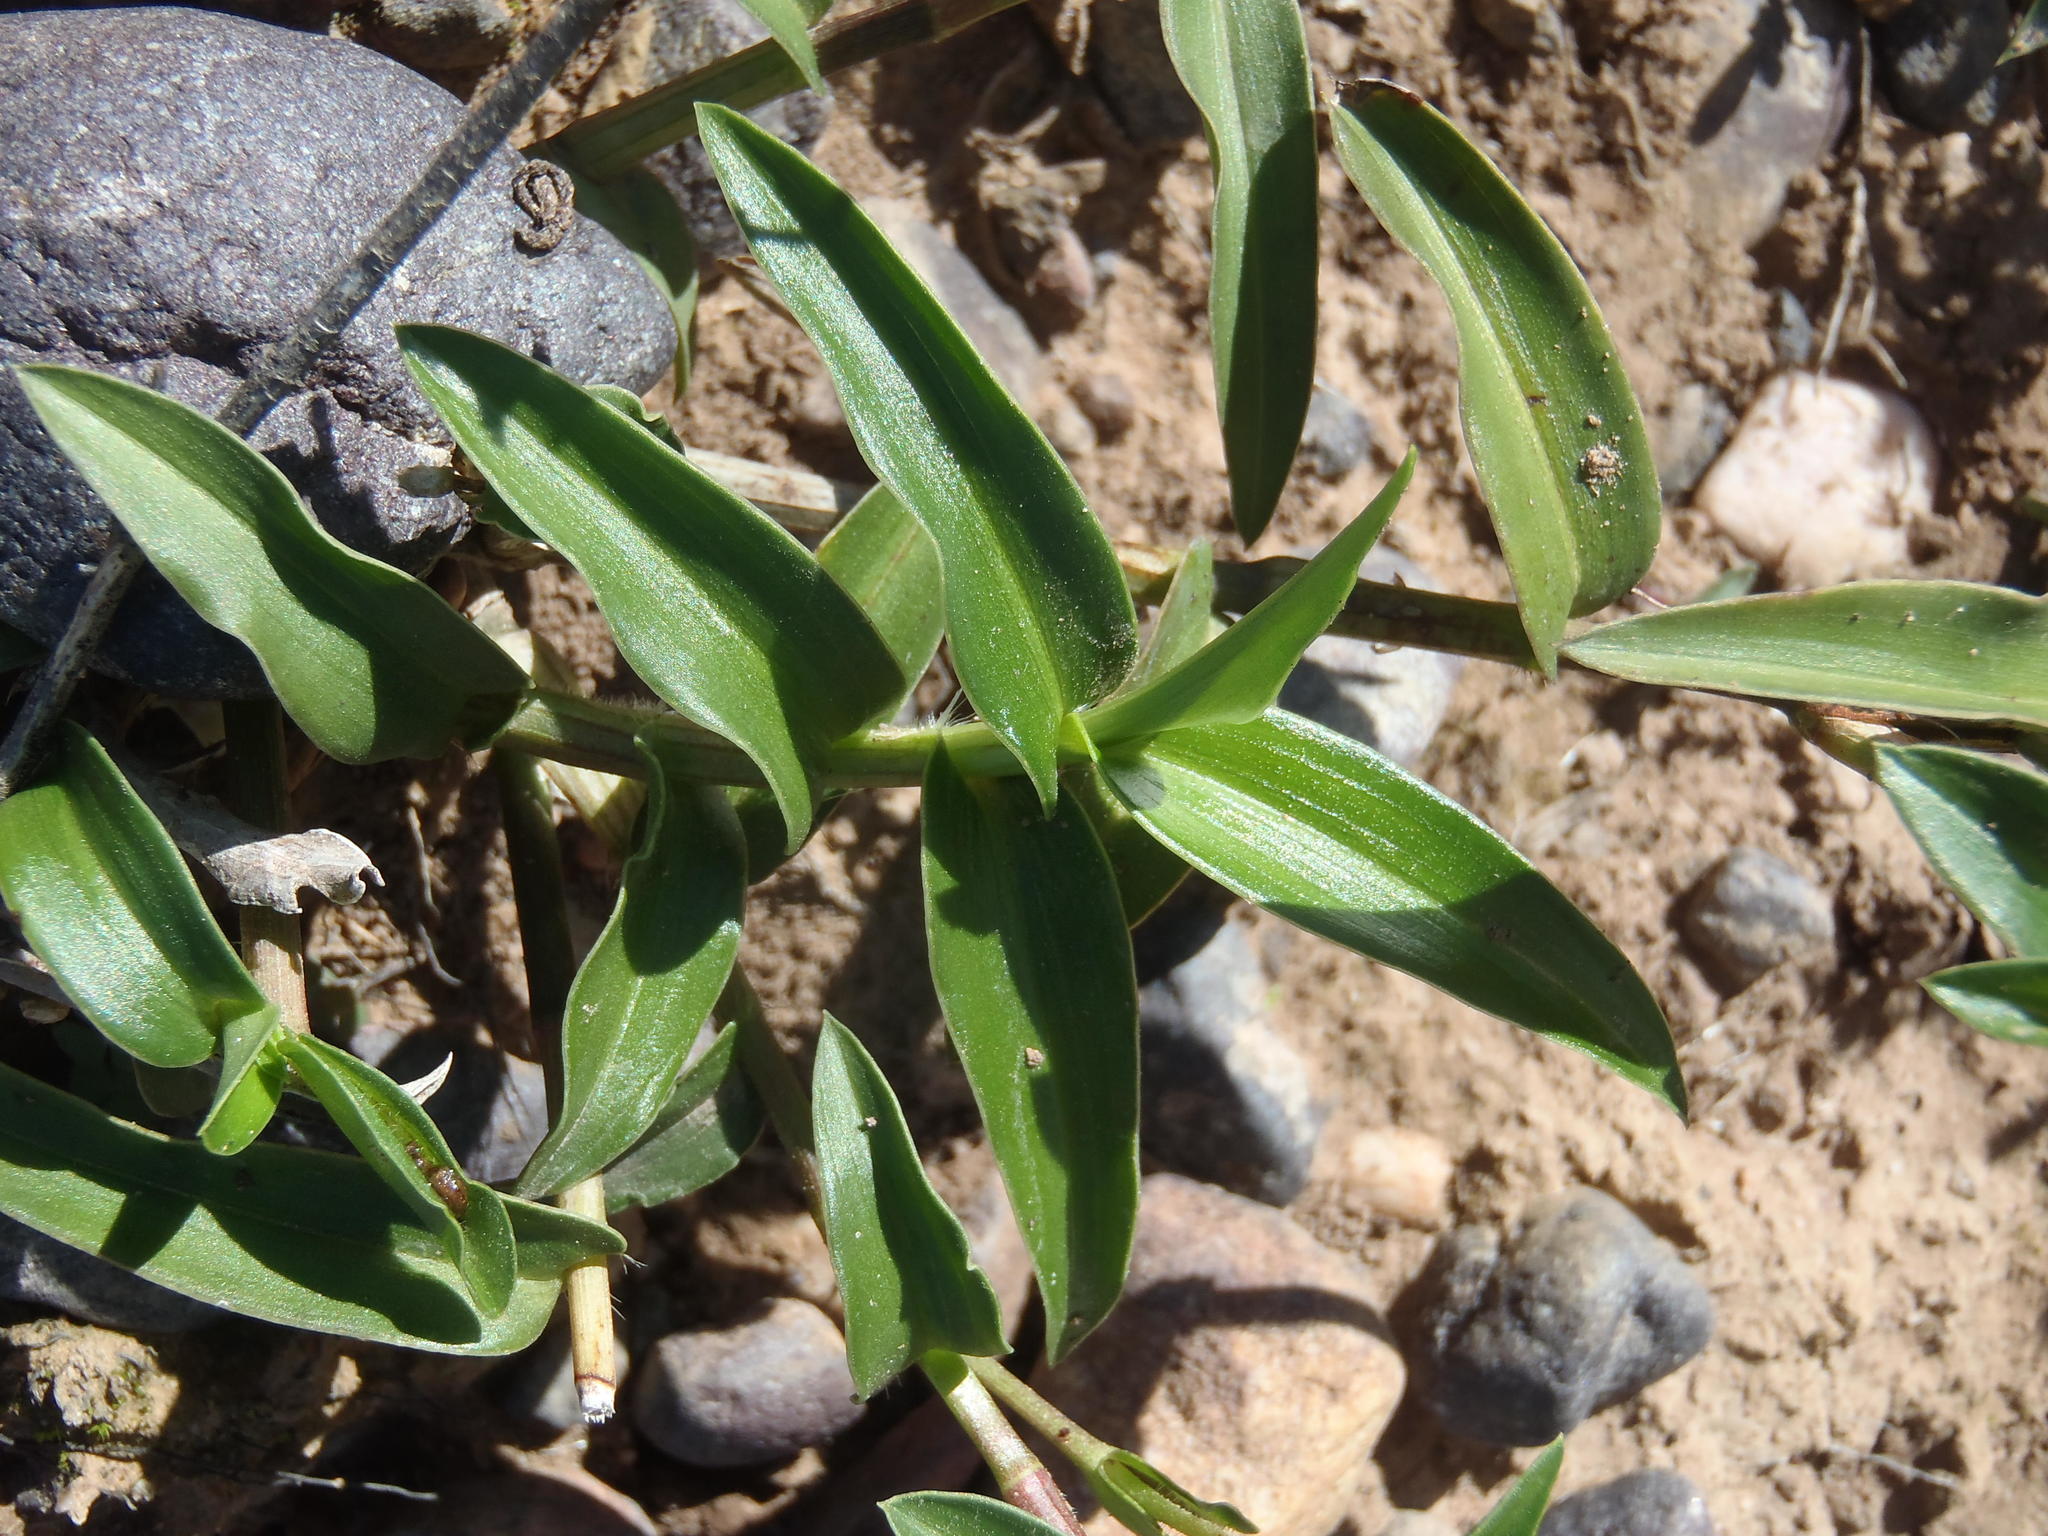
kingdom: Plantae
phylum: Tracheophyta
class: Liliopsida
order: Commelinales
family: Commelinaceae
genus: Commelina
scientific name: Commelina africana
